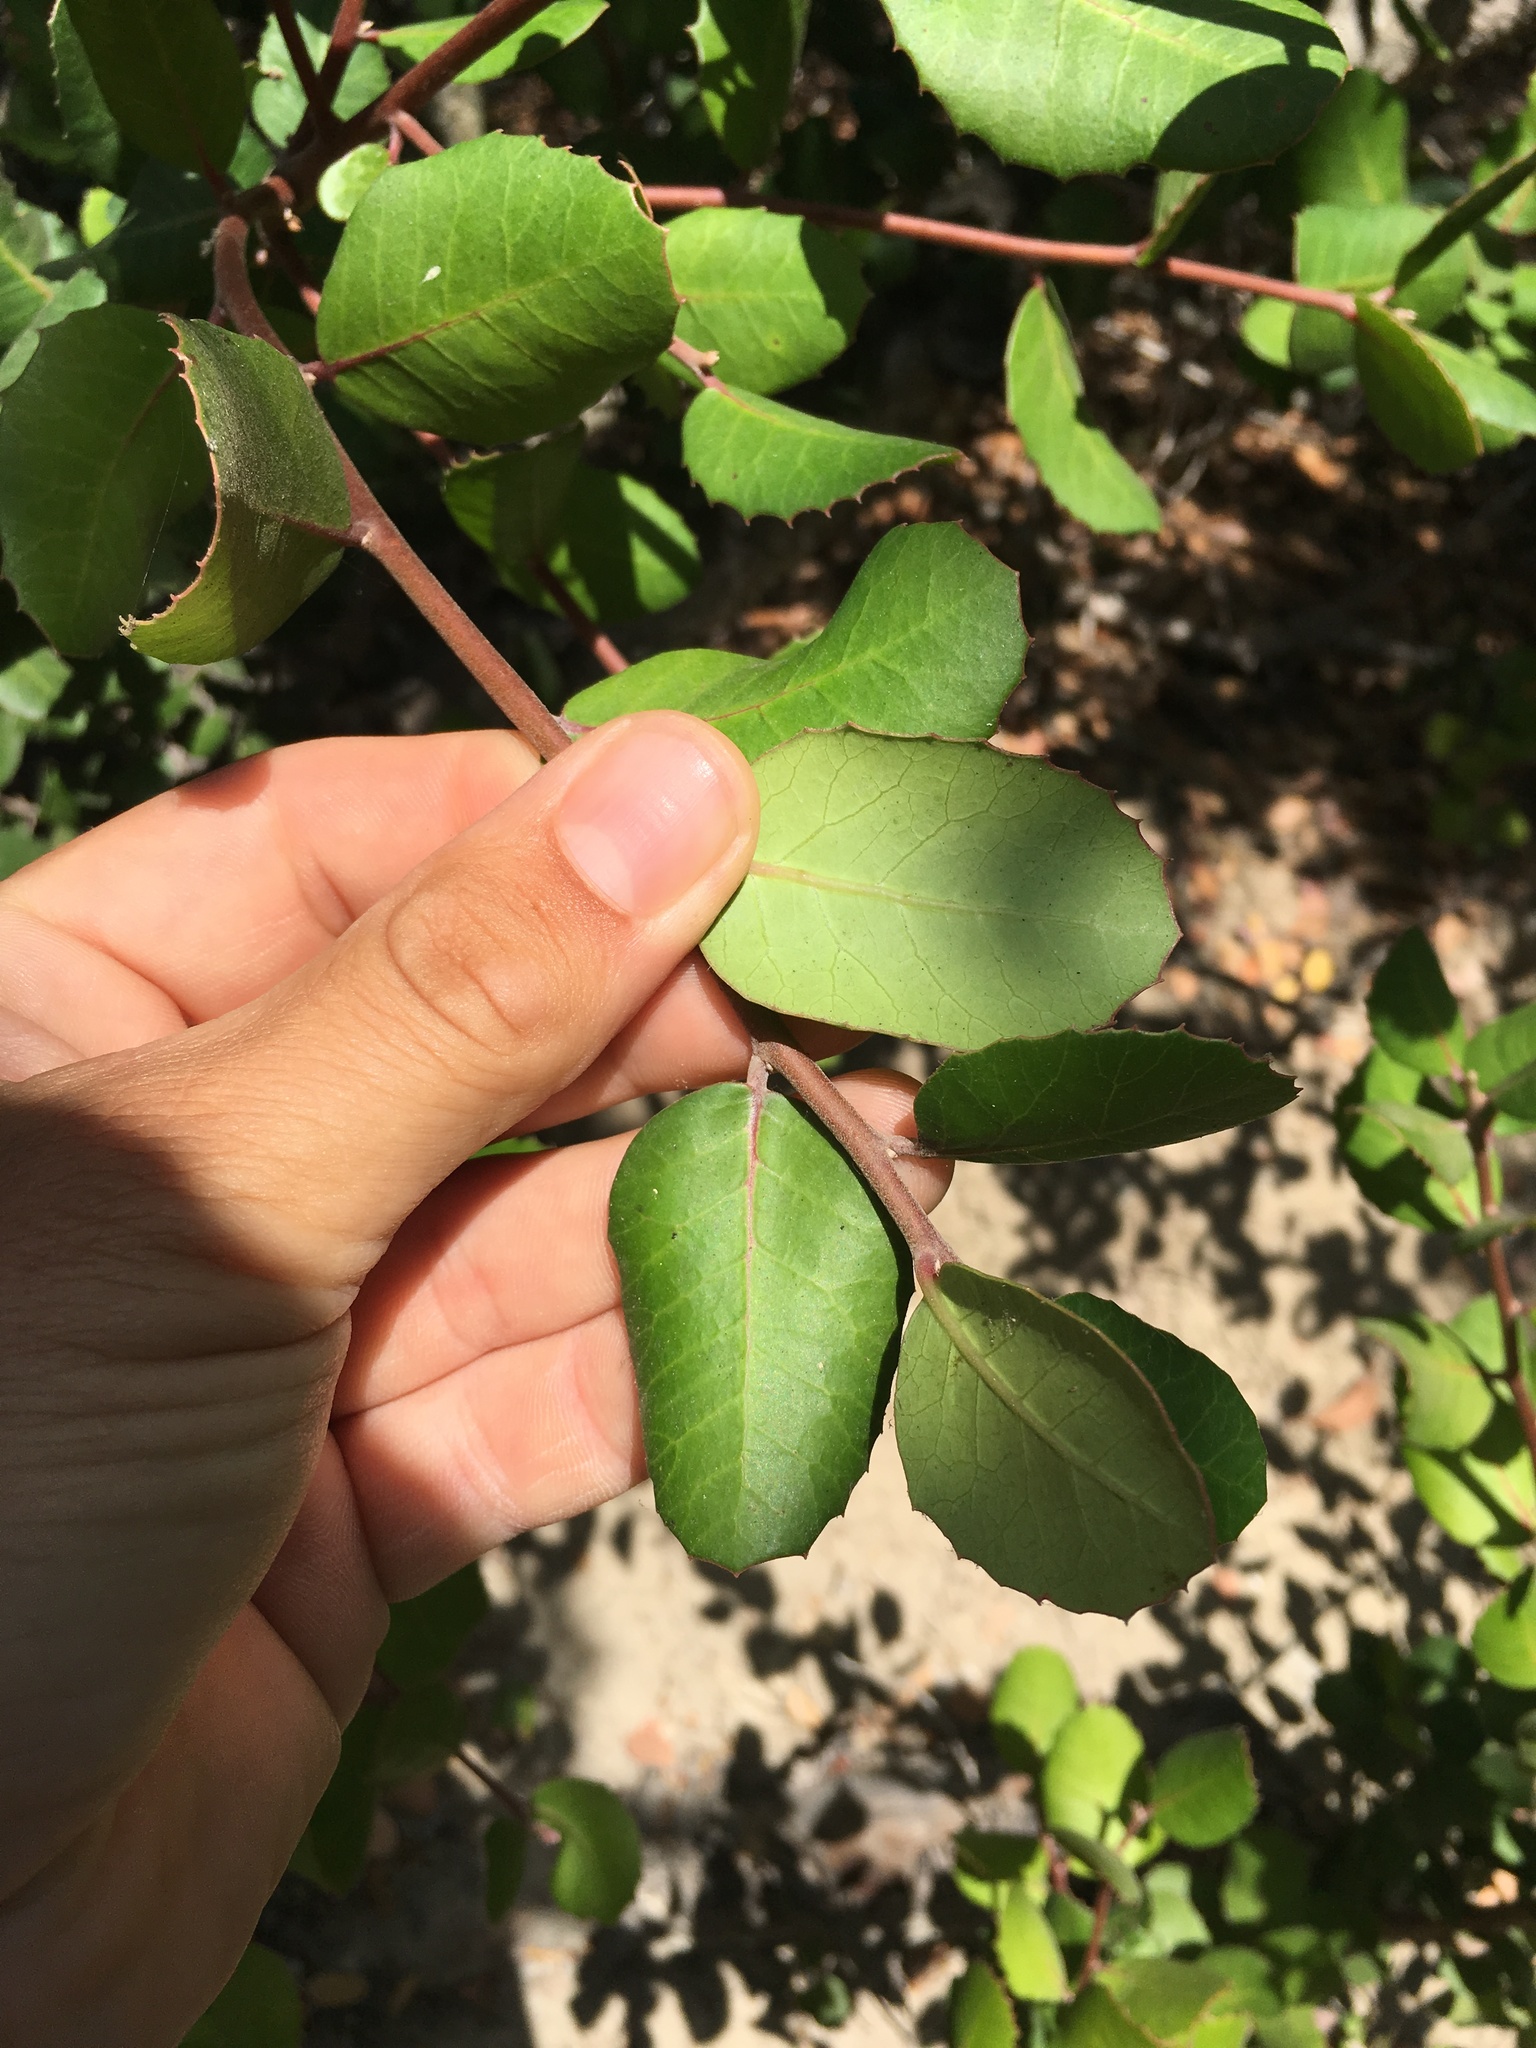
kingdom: Plantae
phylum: Tracheophyta
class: Magnoliopsida
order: Sapindales
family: Anacardiaceae
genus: Rhus
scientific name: Rhus integrifolia
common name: Lemonade sumac
